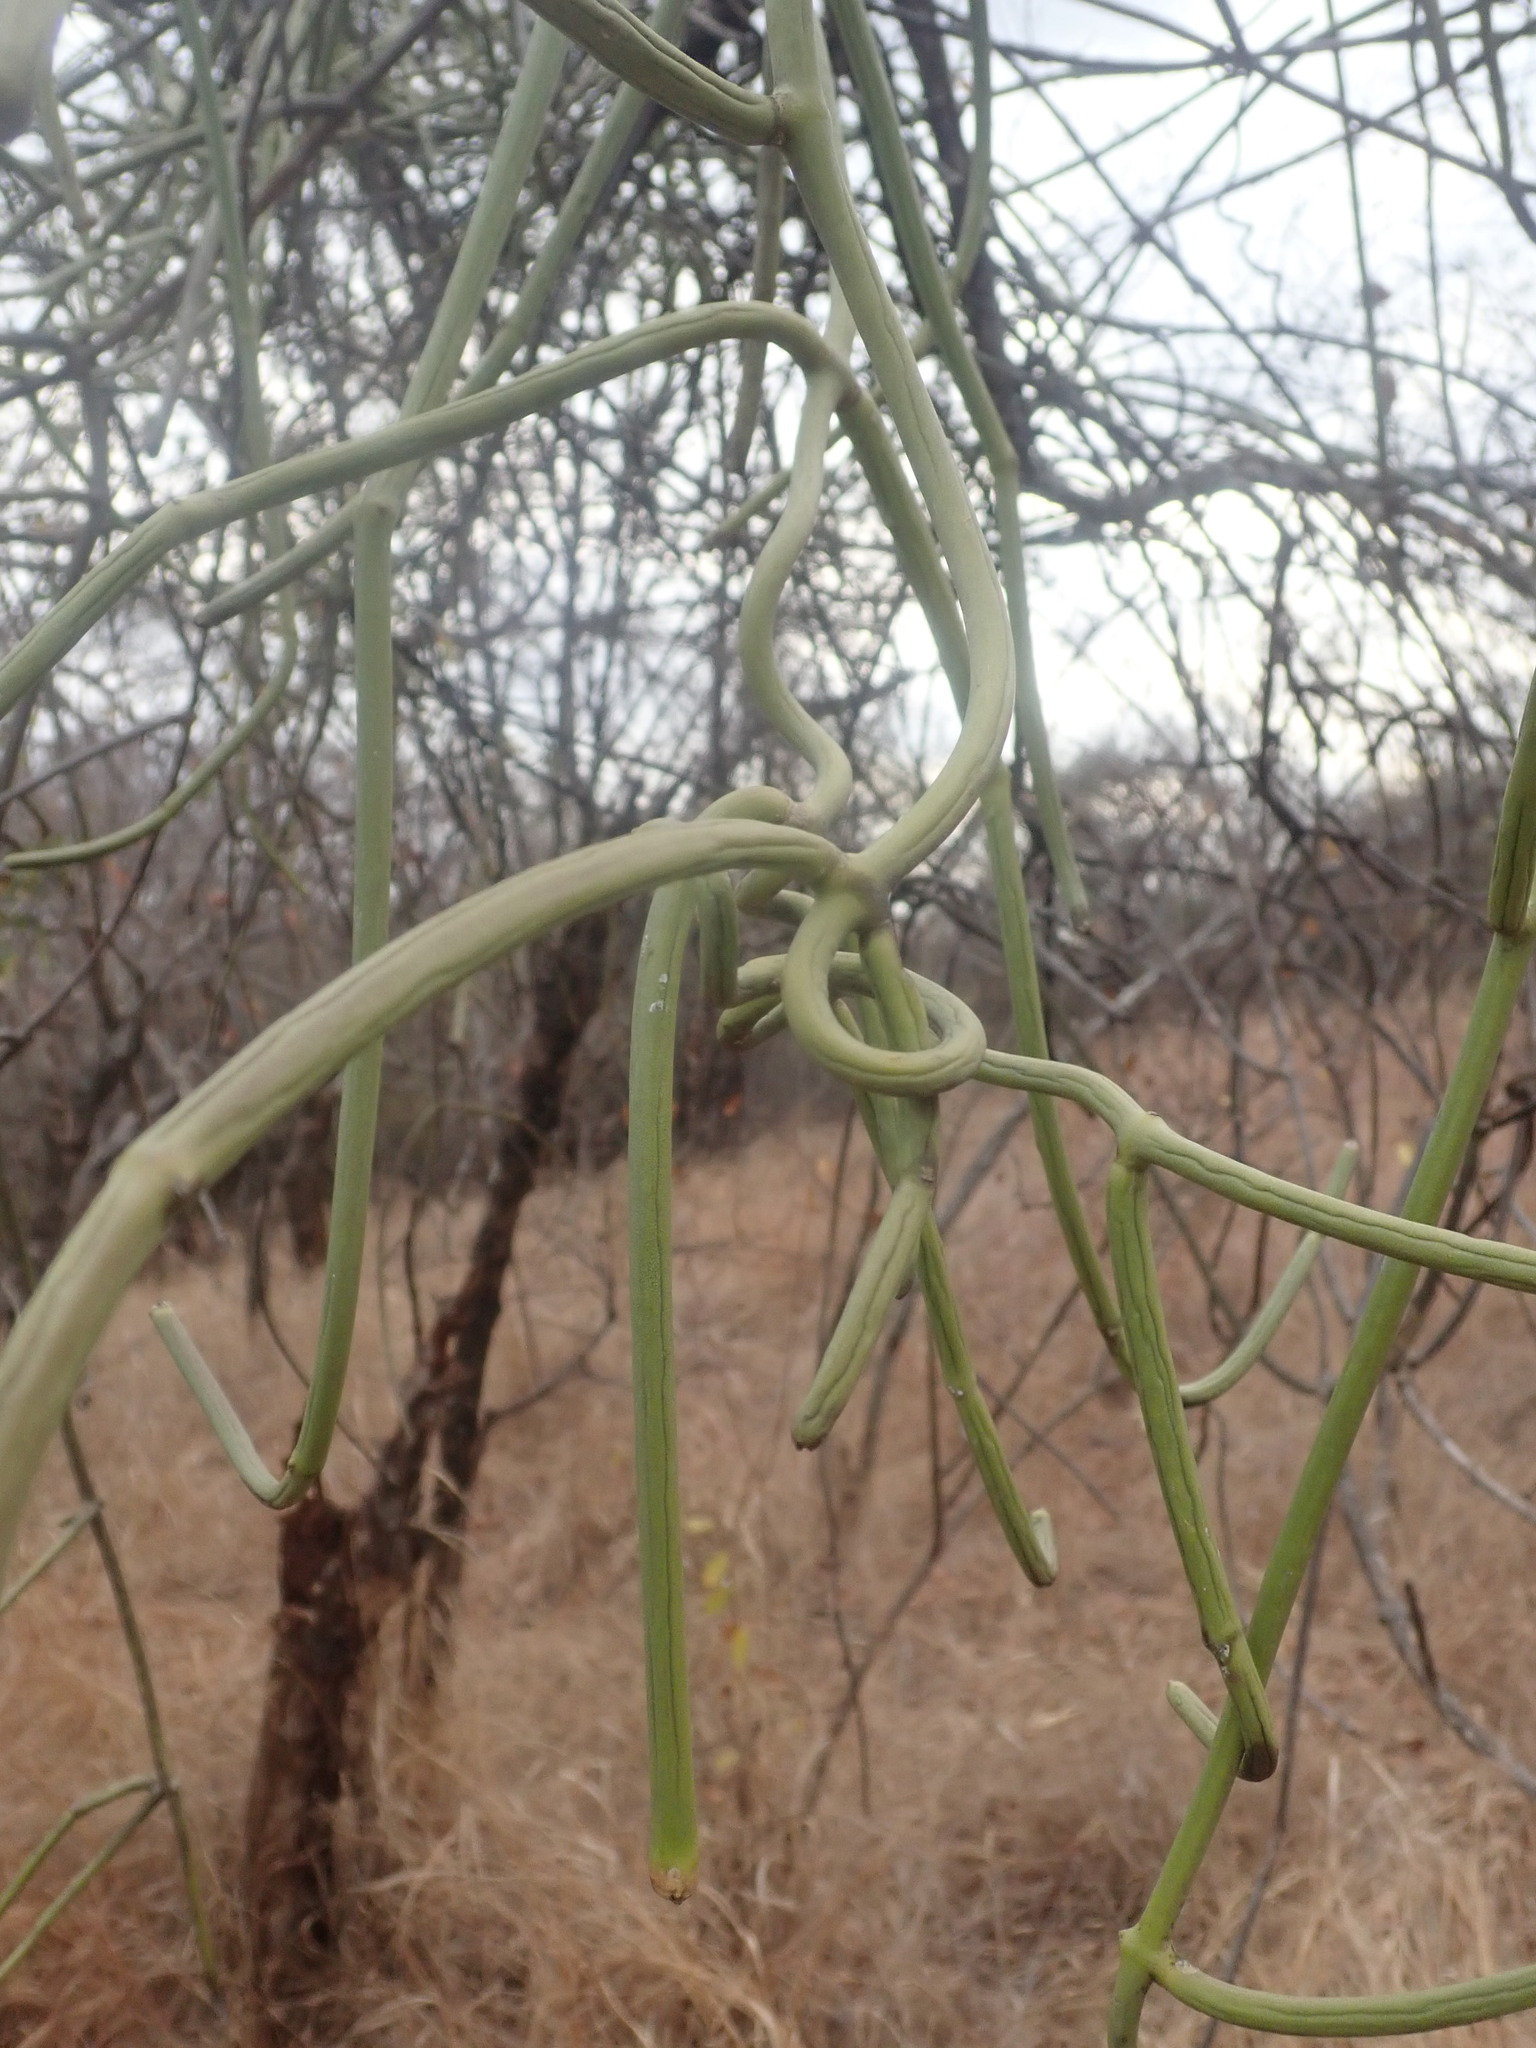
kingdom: Plantae
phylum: Tracheophyta
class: Magnoliopsida
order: Gentianales
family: Apocynaceae
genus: Cynanchum
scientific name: Cynanchum viminale
